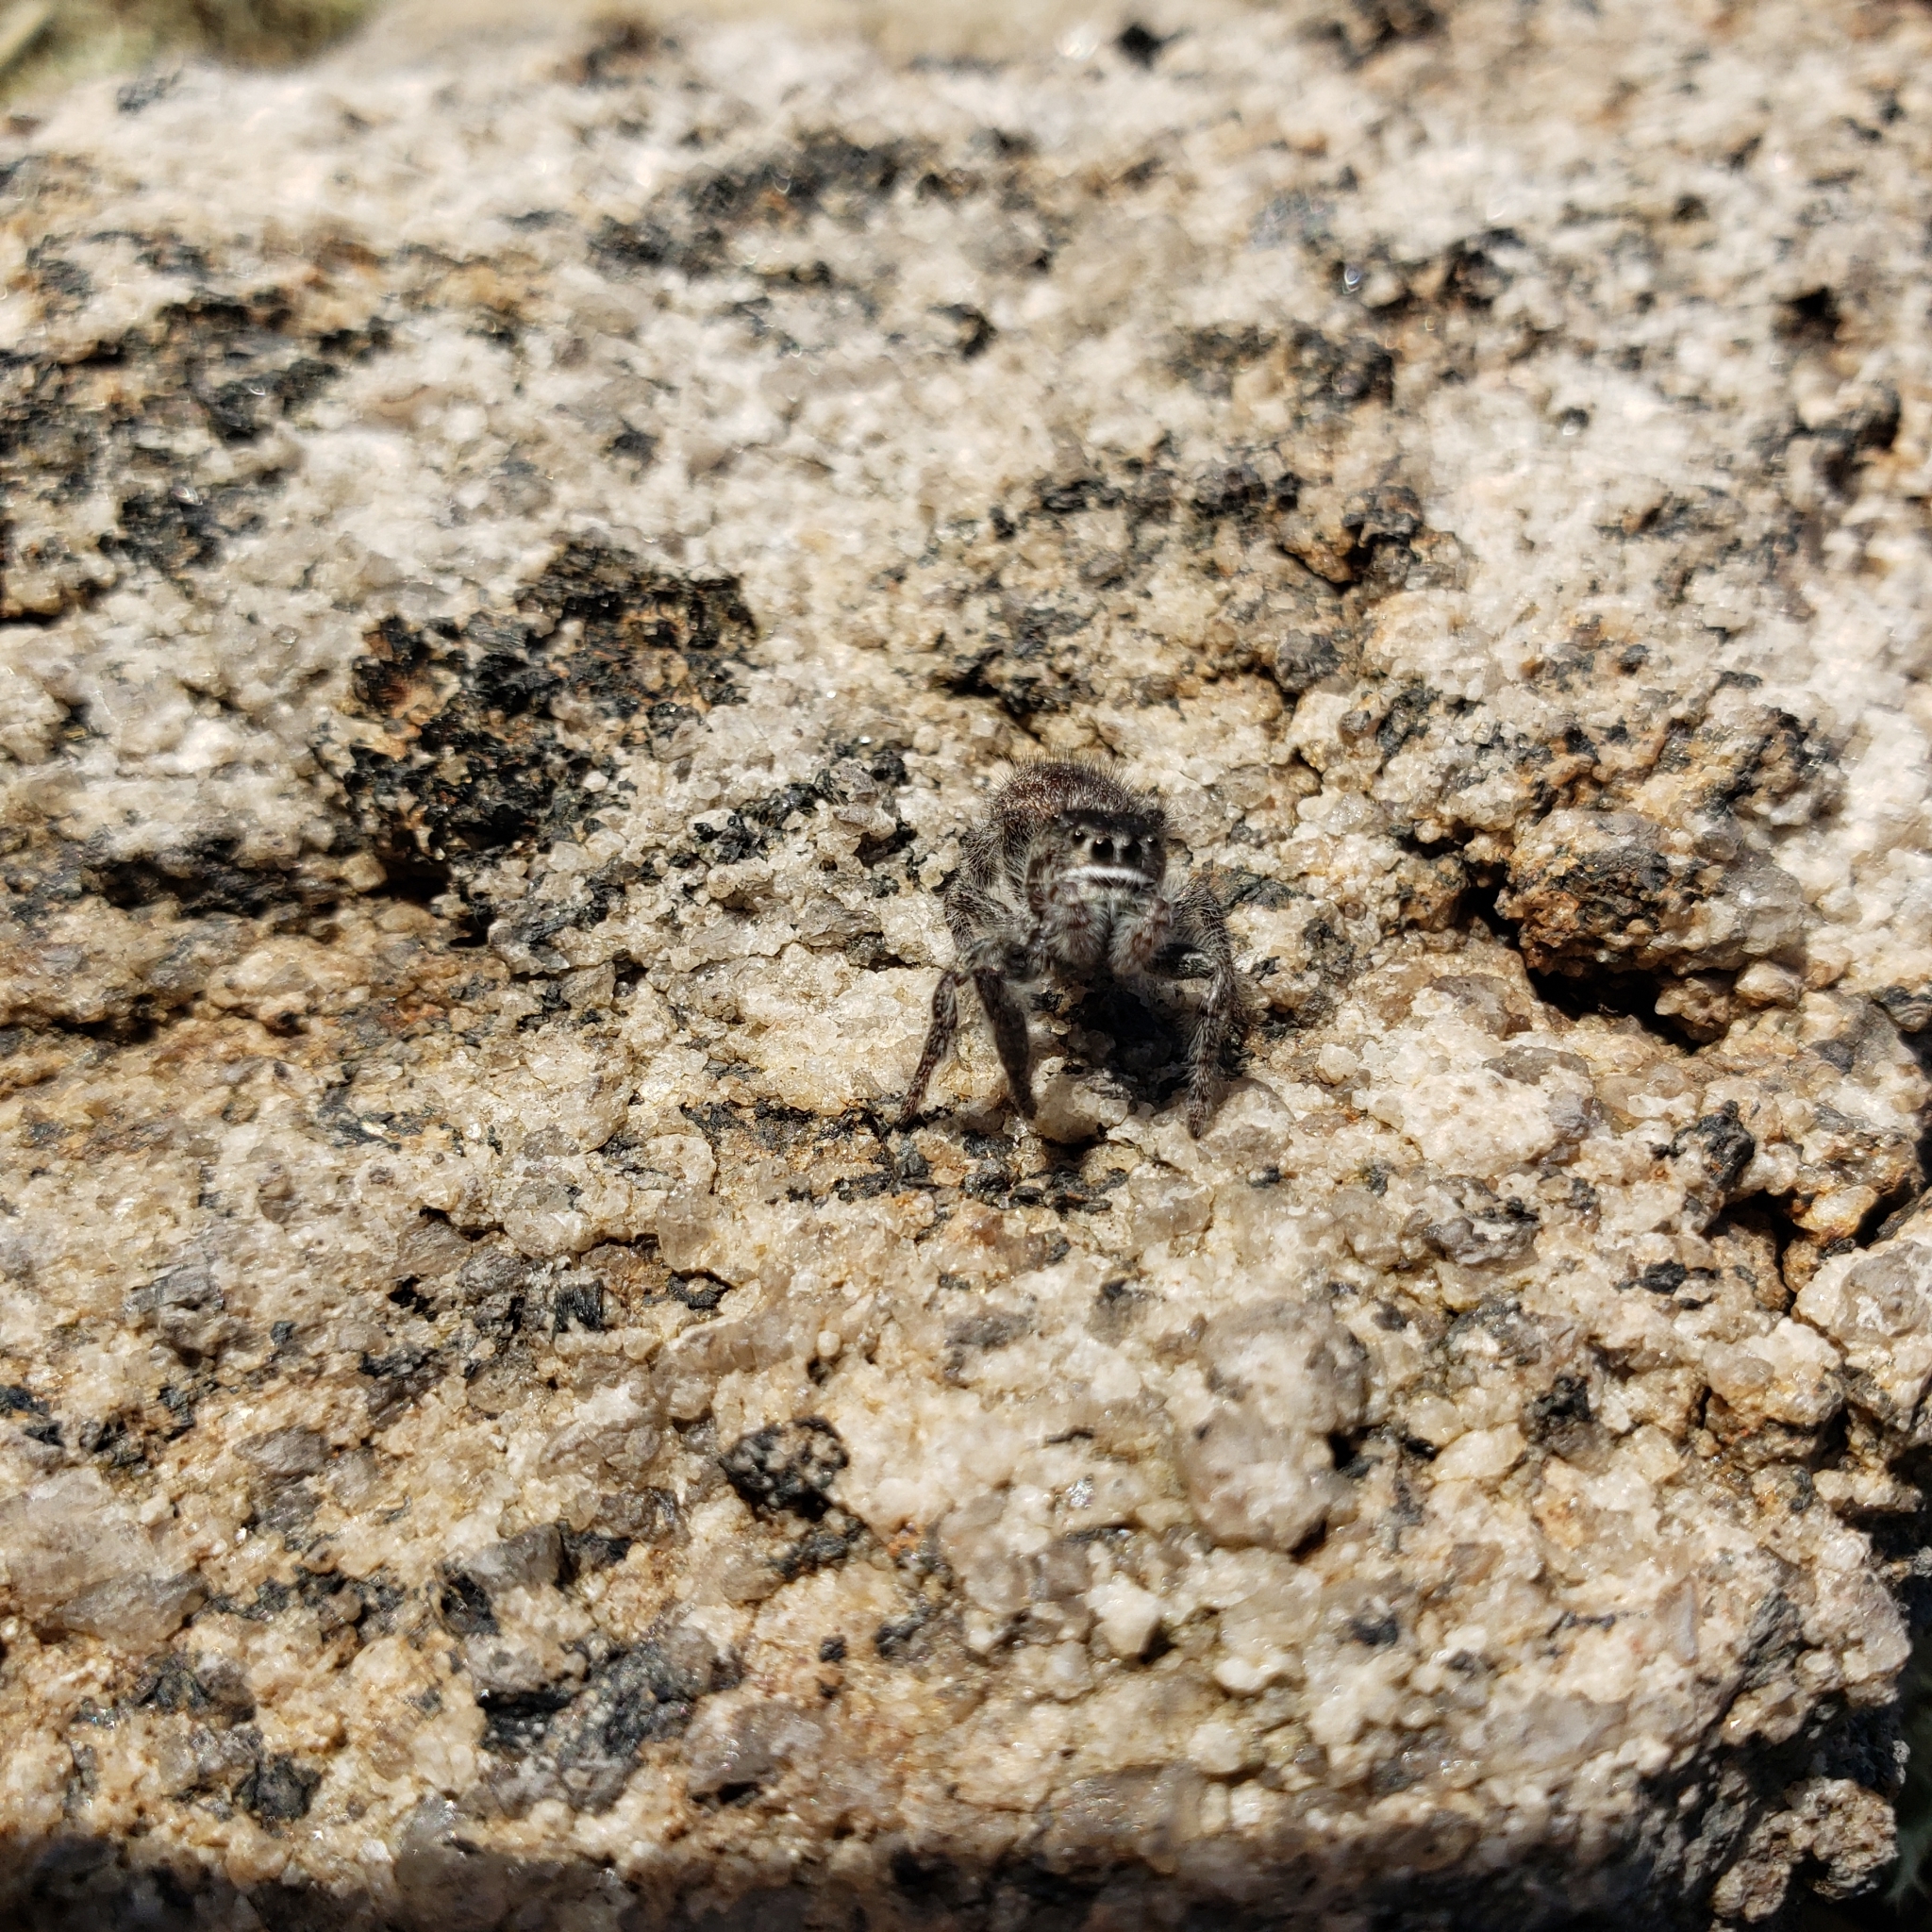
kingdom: Animalia
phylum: Arthropoda
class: Arachnida
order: Araneae
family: Salticidae
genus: Phidippus
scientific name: Phidippus purpuratus
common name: Marbled purple jumping spider
